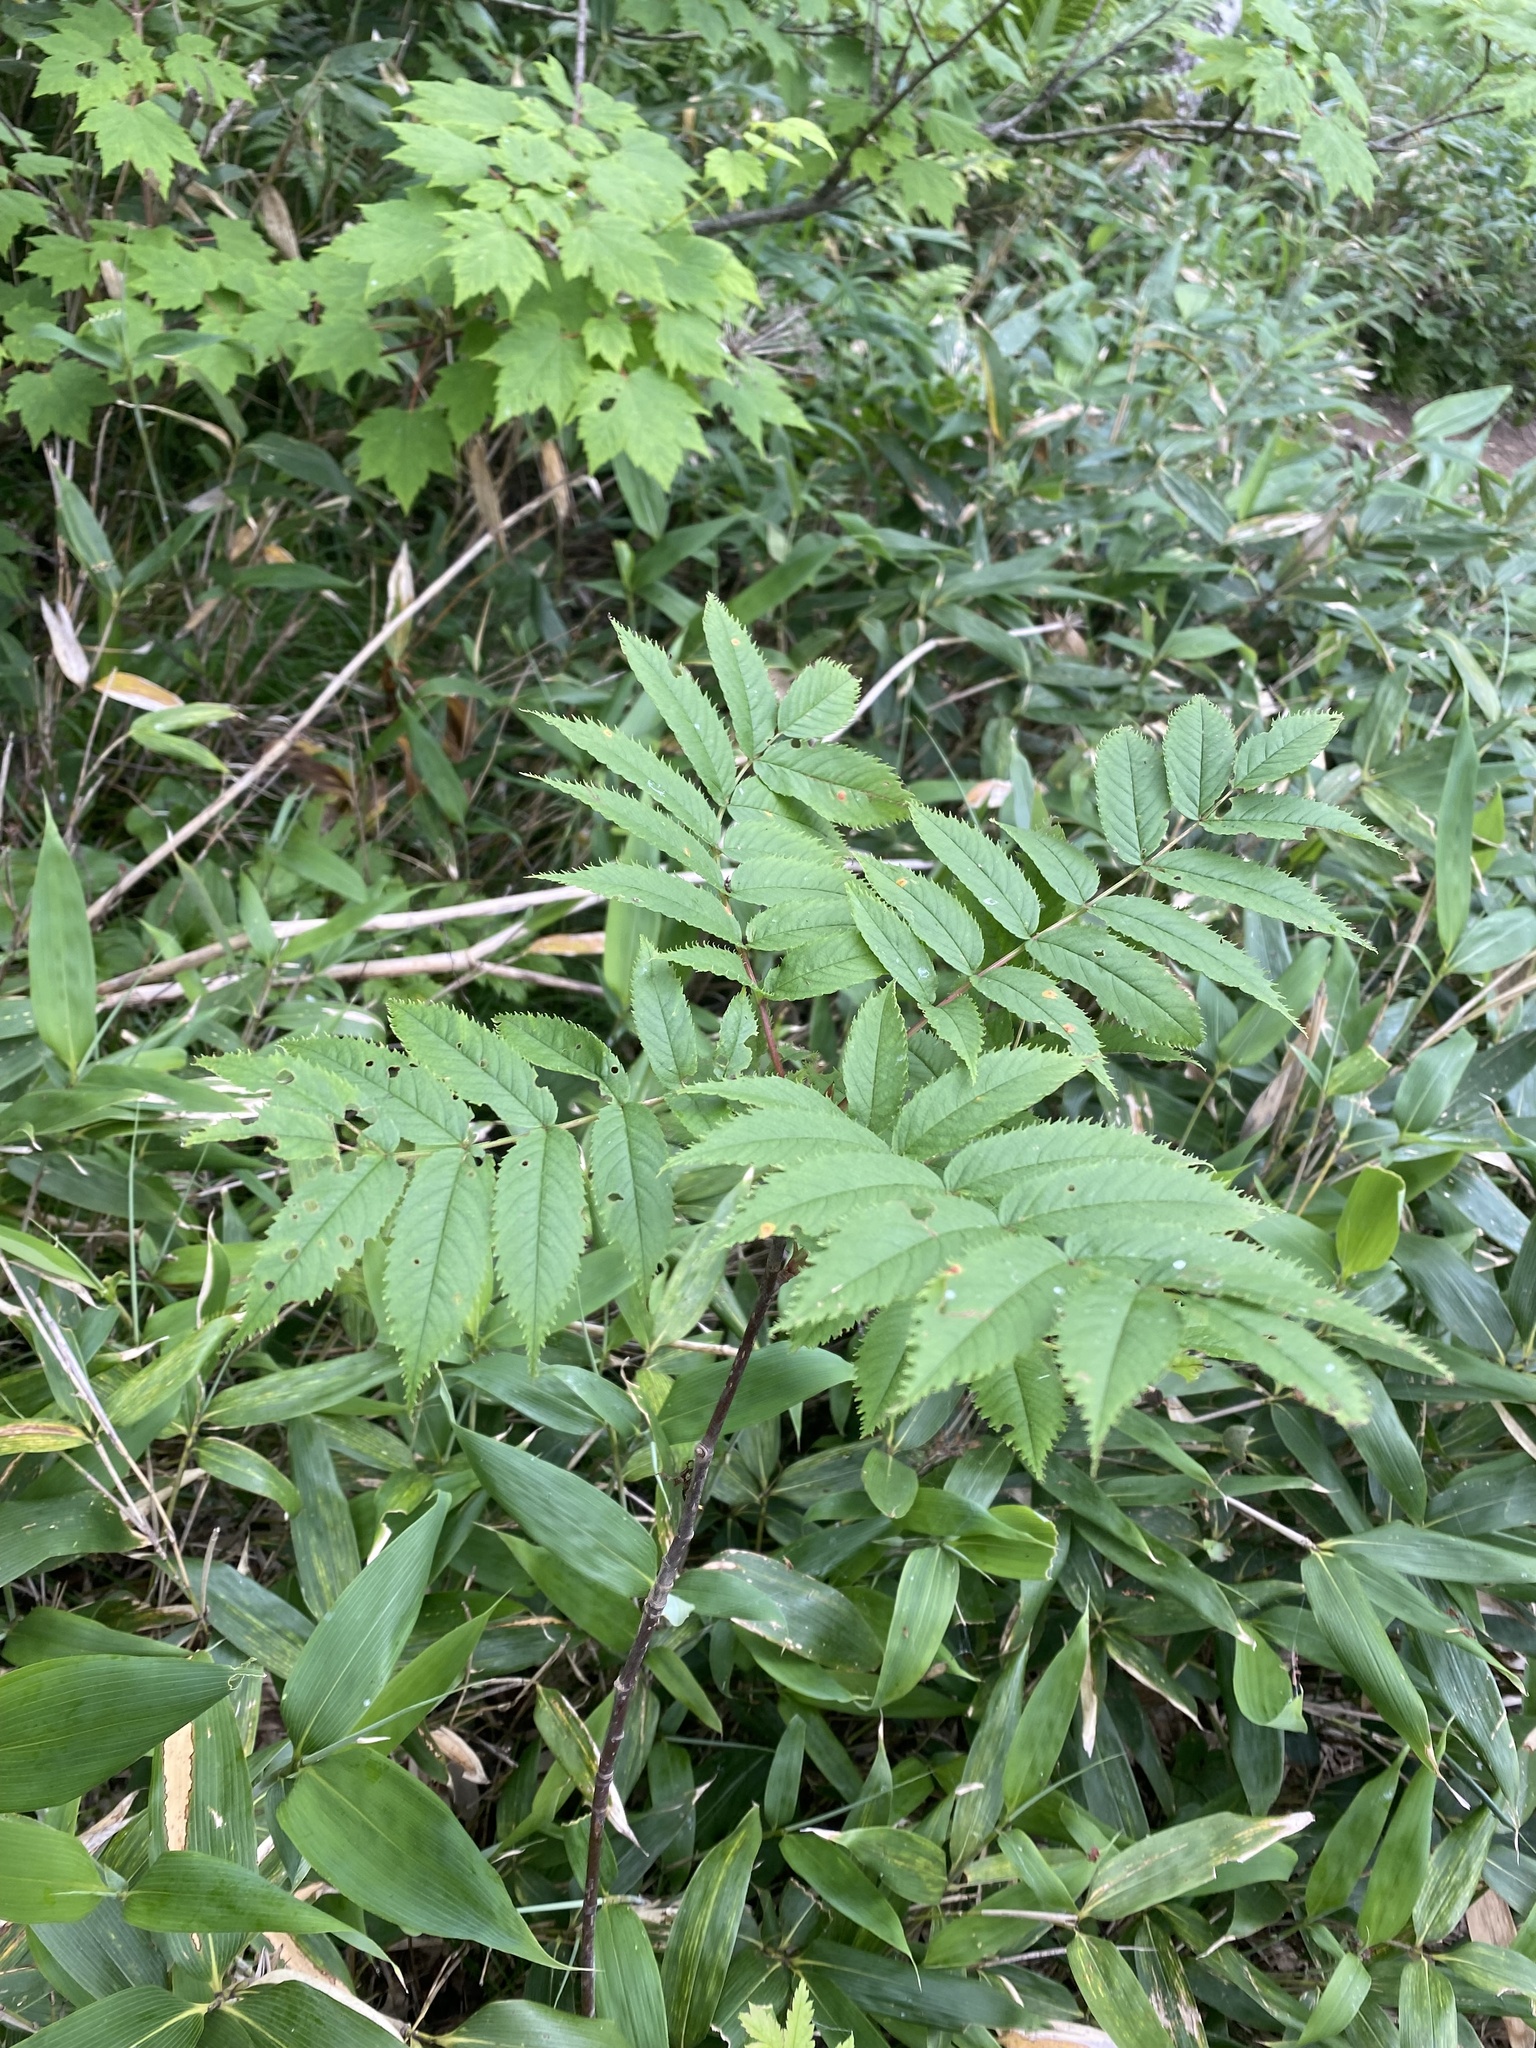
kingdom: Plantae
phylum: Tracheophyta
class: Magnoliopsida
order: Rosales
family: Rosaceae
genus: Sorbaria
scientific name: Sorbaria sorbifolia
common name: False spiraea
